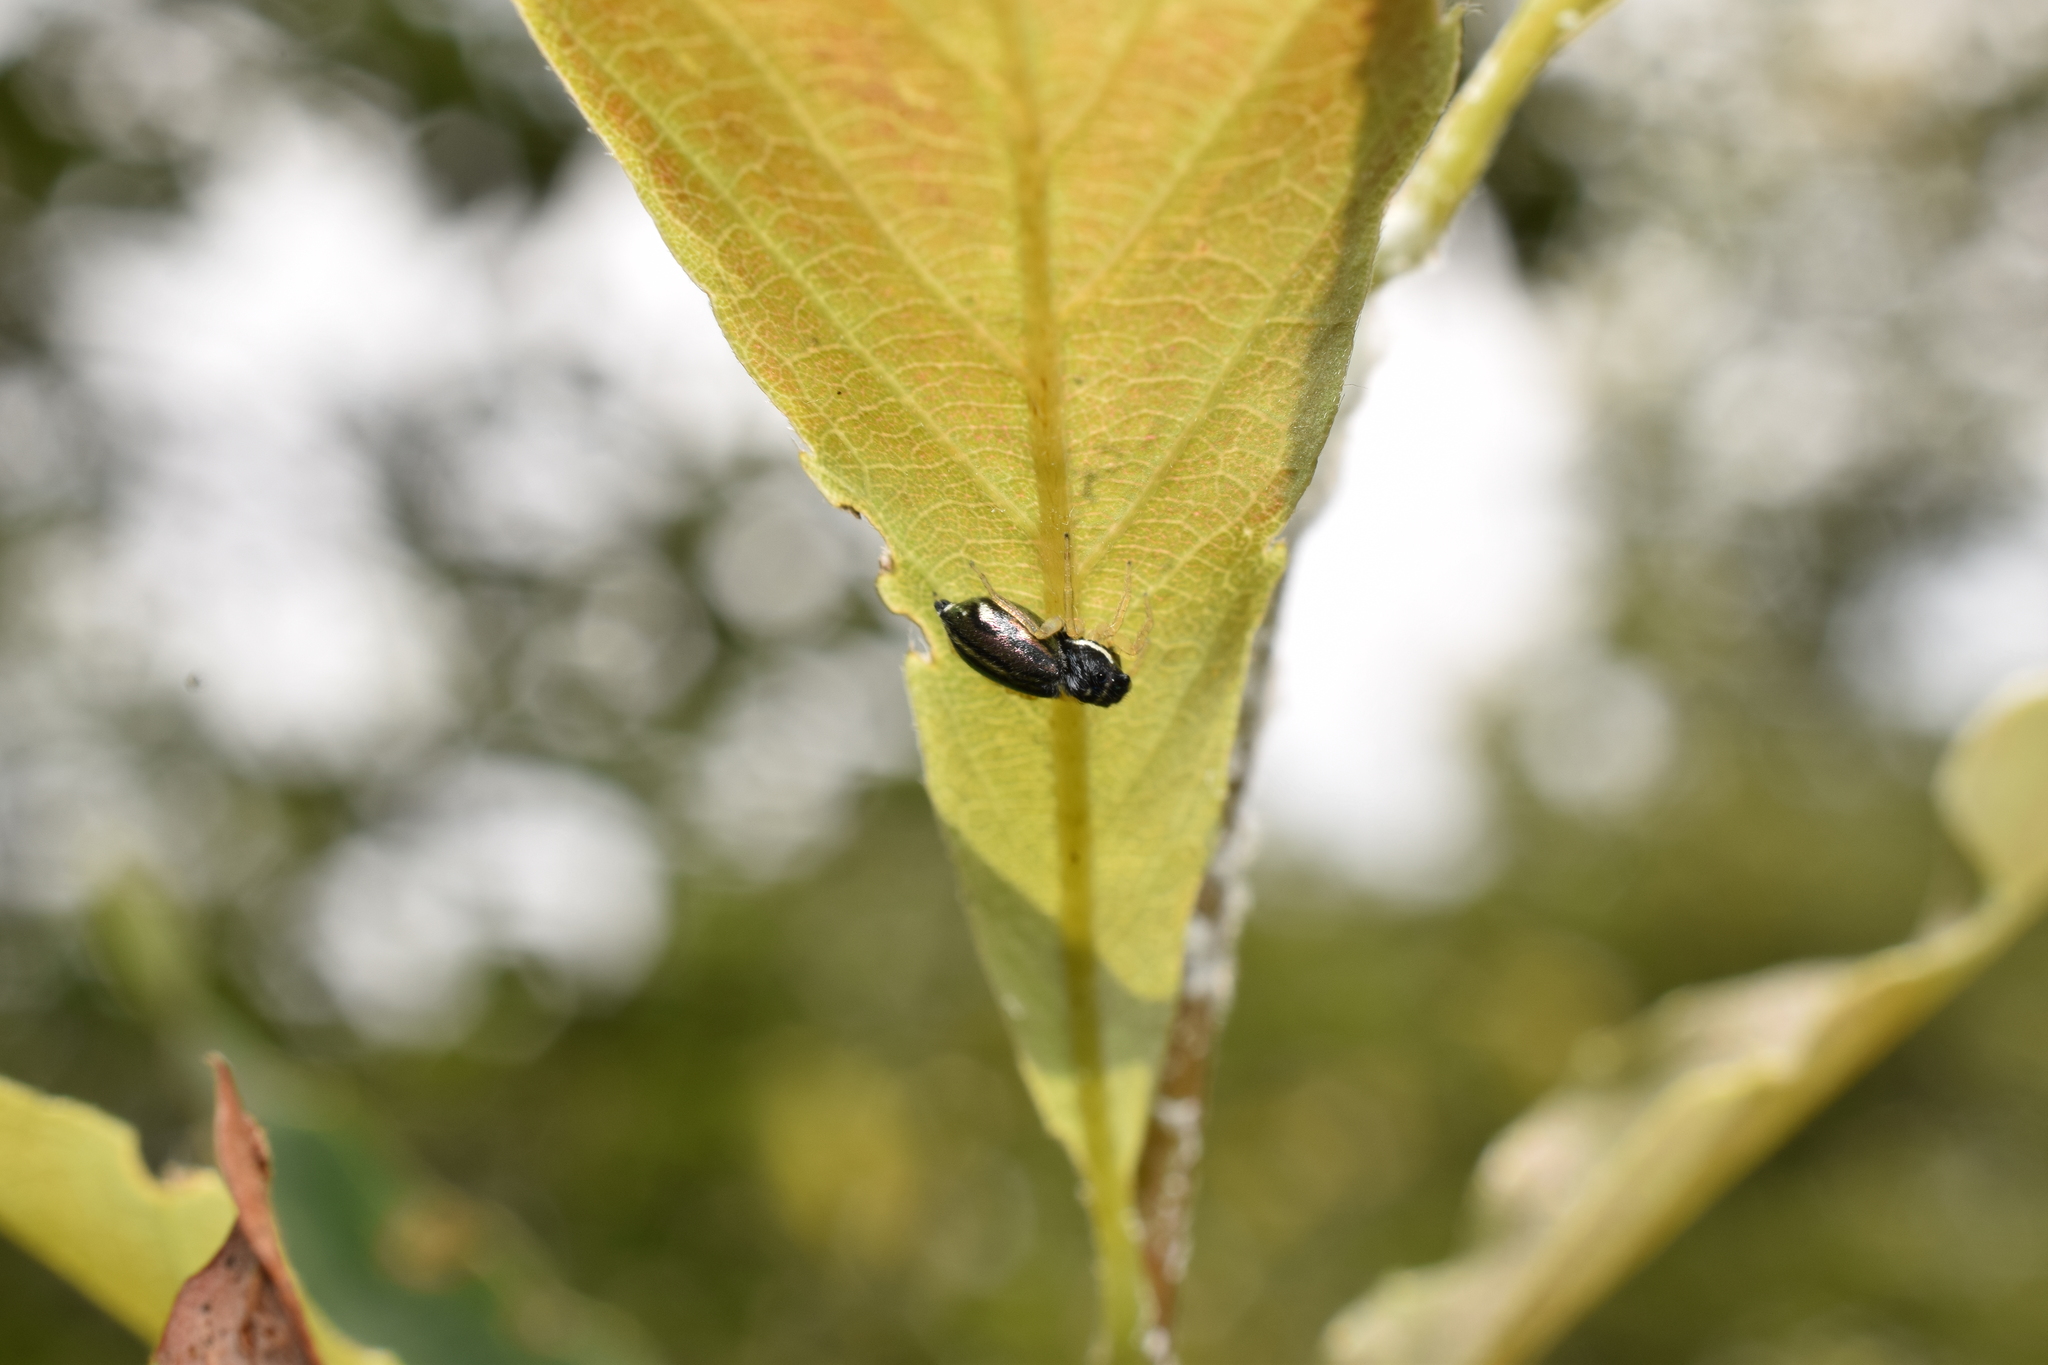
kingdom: Animalia
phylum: Arthropoda
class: Arachnida
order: Araneae
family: Salticidae
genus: Phintella
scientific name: Phintella bifurcilinea
